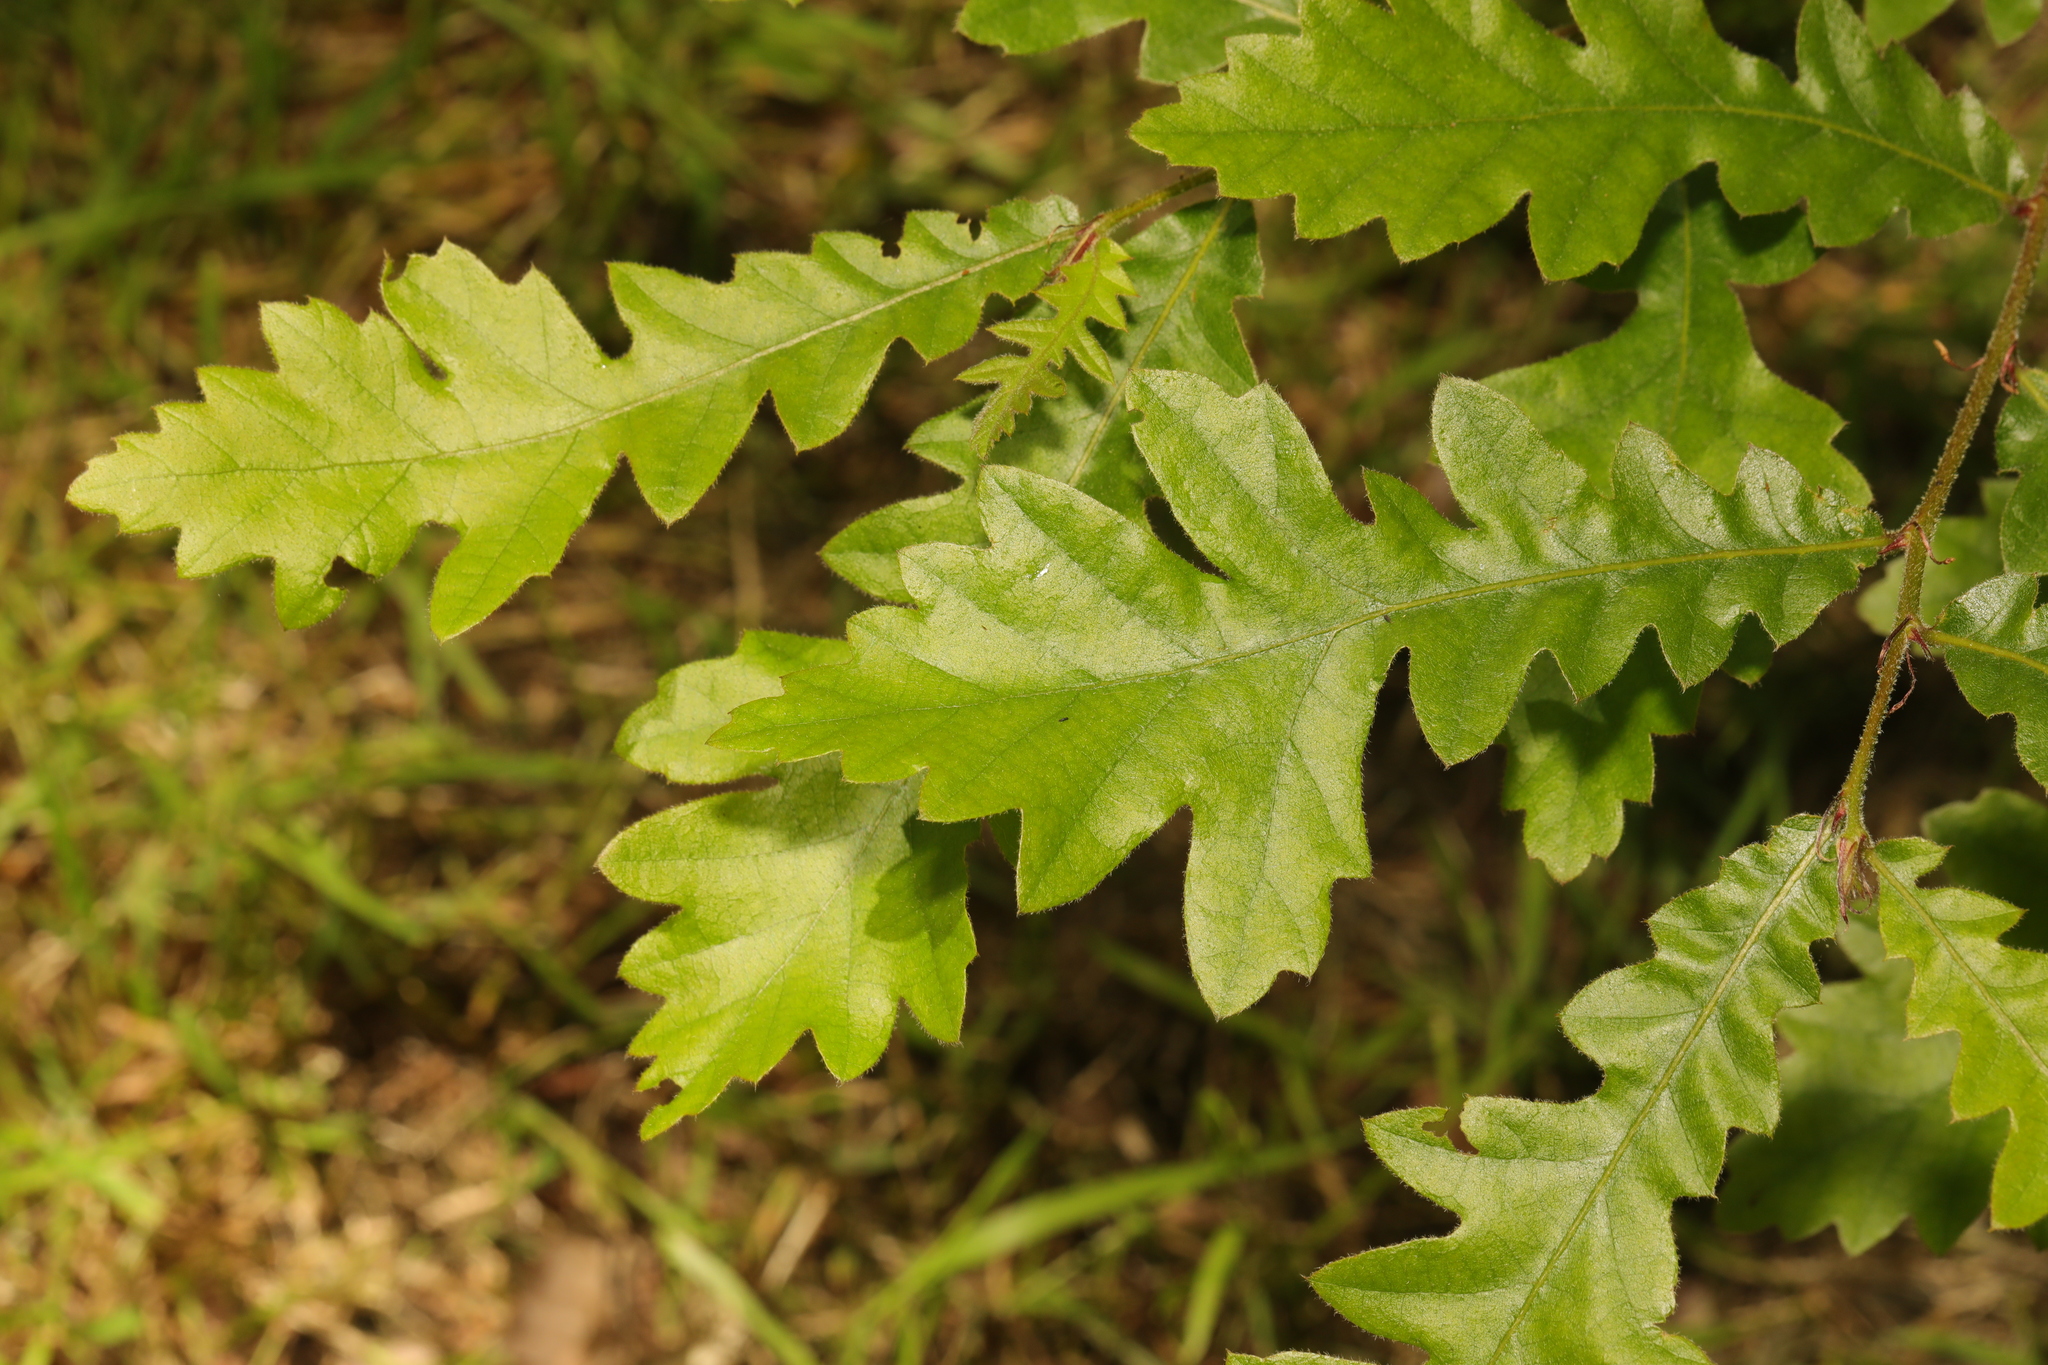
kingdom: Plantae
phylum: Tracheophyta
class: Magnoliopsida
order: Fagales
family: Fagaceae
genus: Quercus
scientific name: Quercus cerris
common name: Turkey oak
